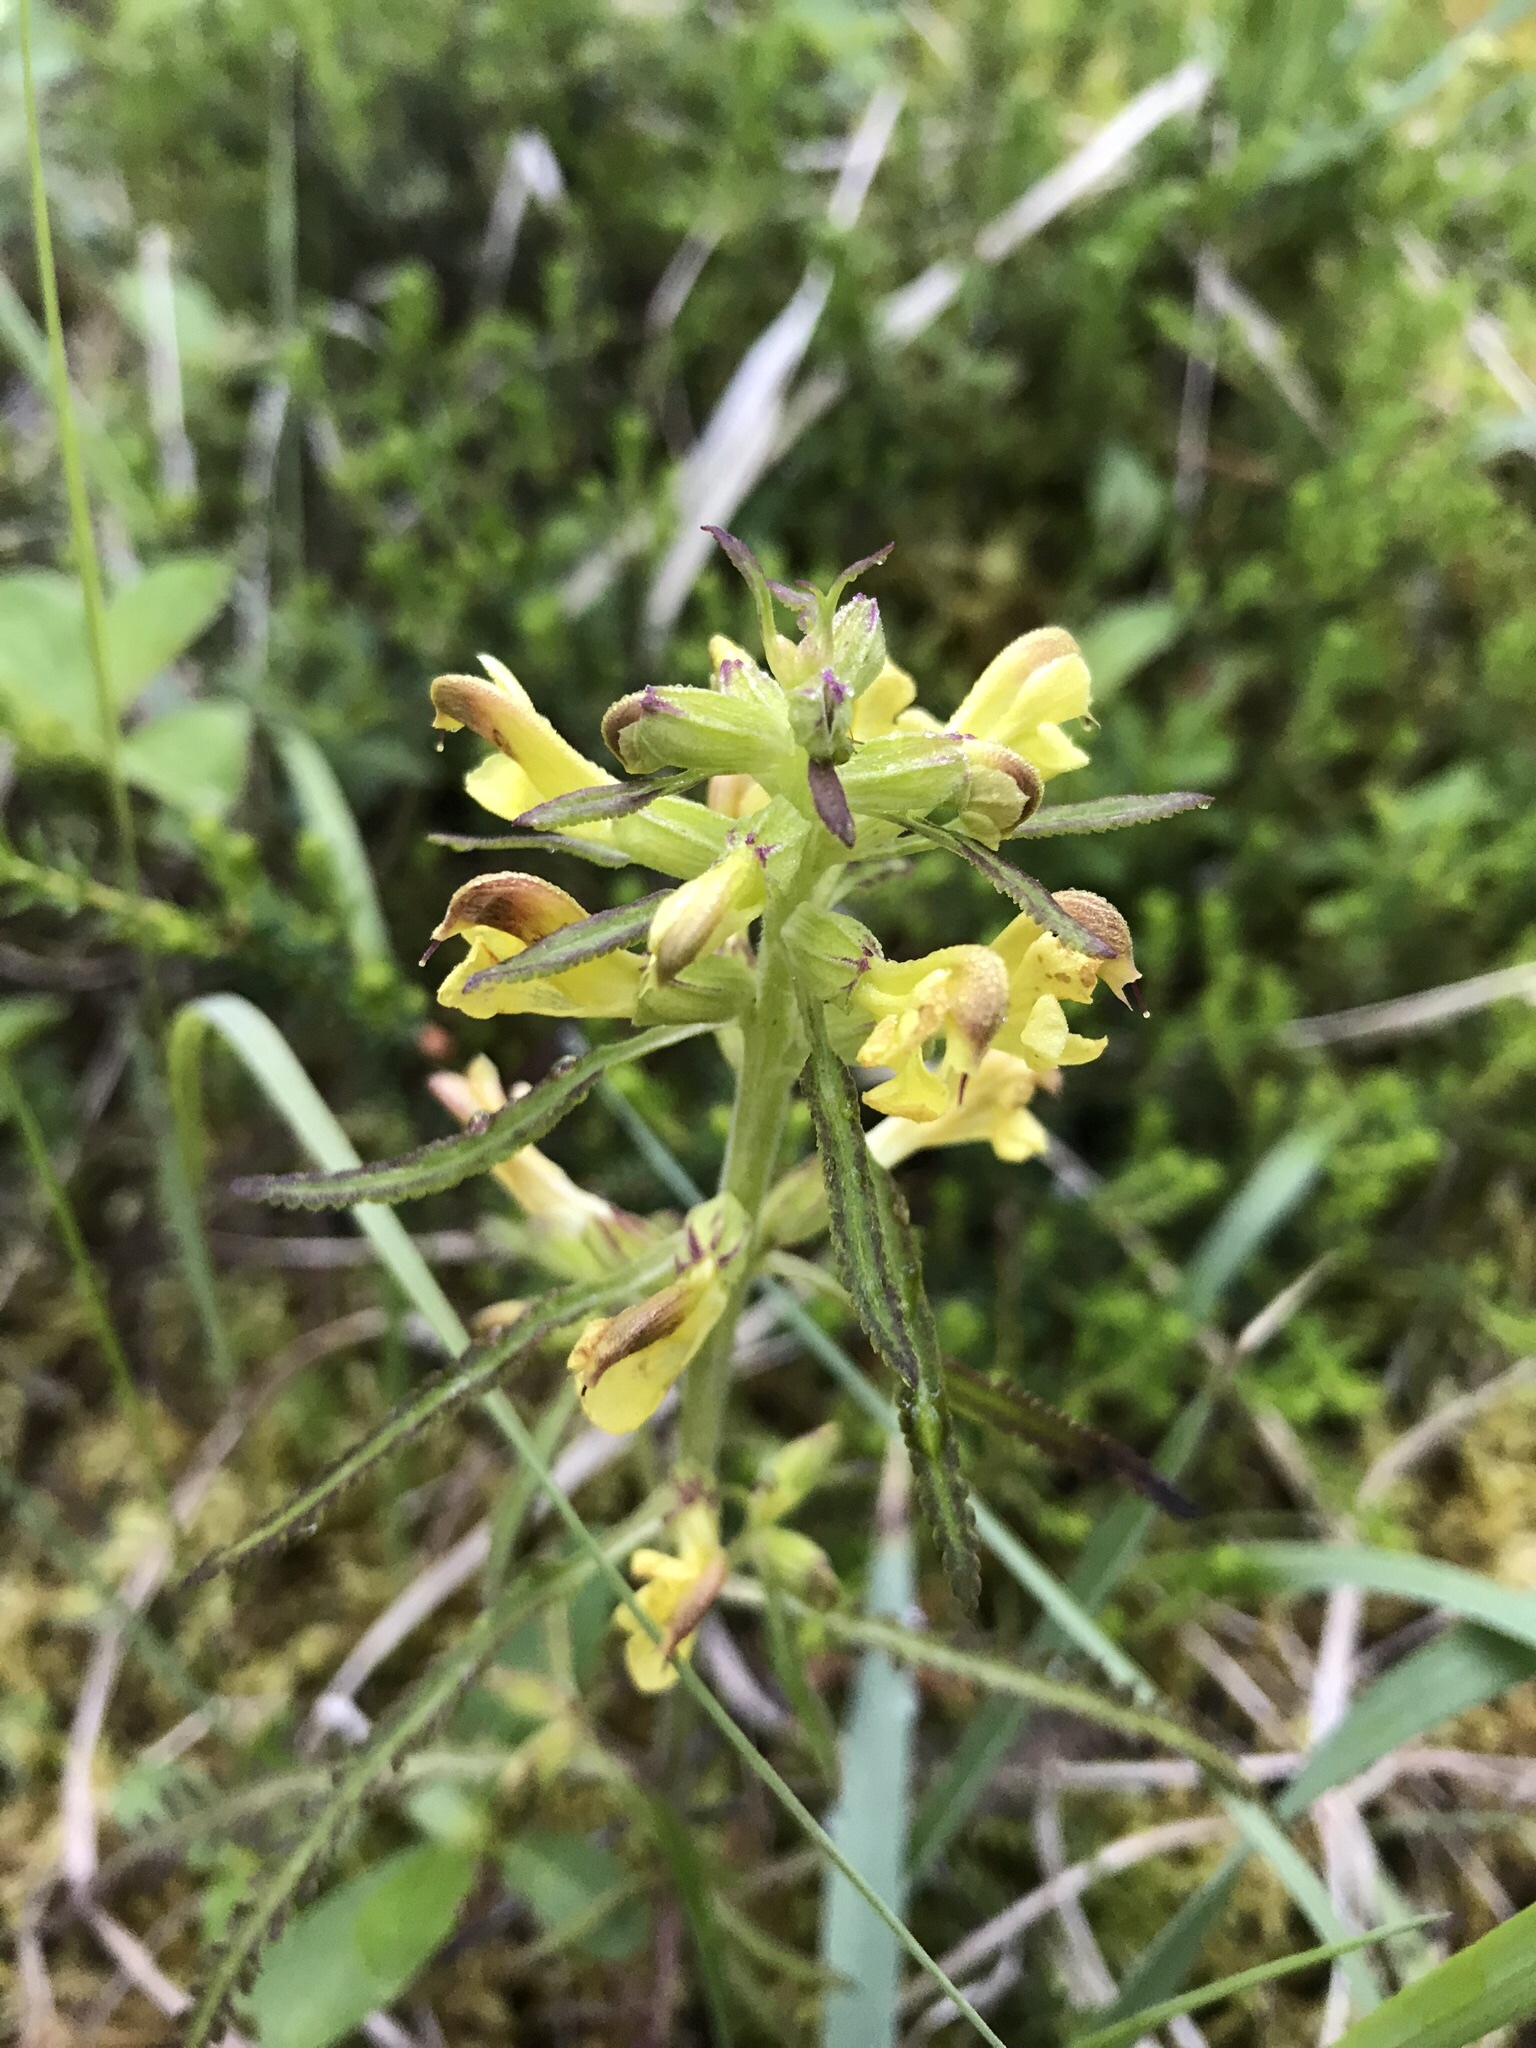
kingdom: Plantae
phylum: Tracheophyta
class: Magnoliopsida
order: Lamiales
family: Orobanchaceae
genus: Pedicularis
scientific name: Pedicularis labradorica
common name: Labrador lousewort
